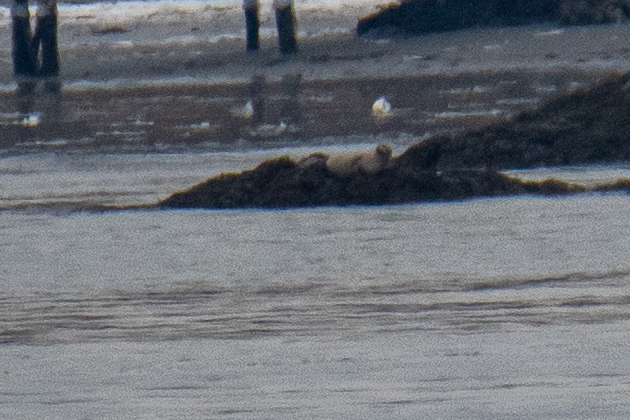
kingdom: Animalia
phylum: Chordata
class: Mammalia
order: Carnivora
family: Phocidae
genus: Phoca
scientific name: Phoca vitulina
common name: Harbor seal
